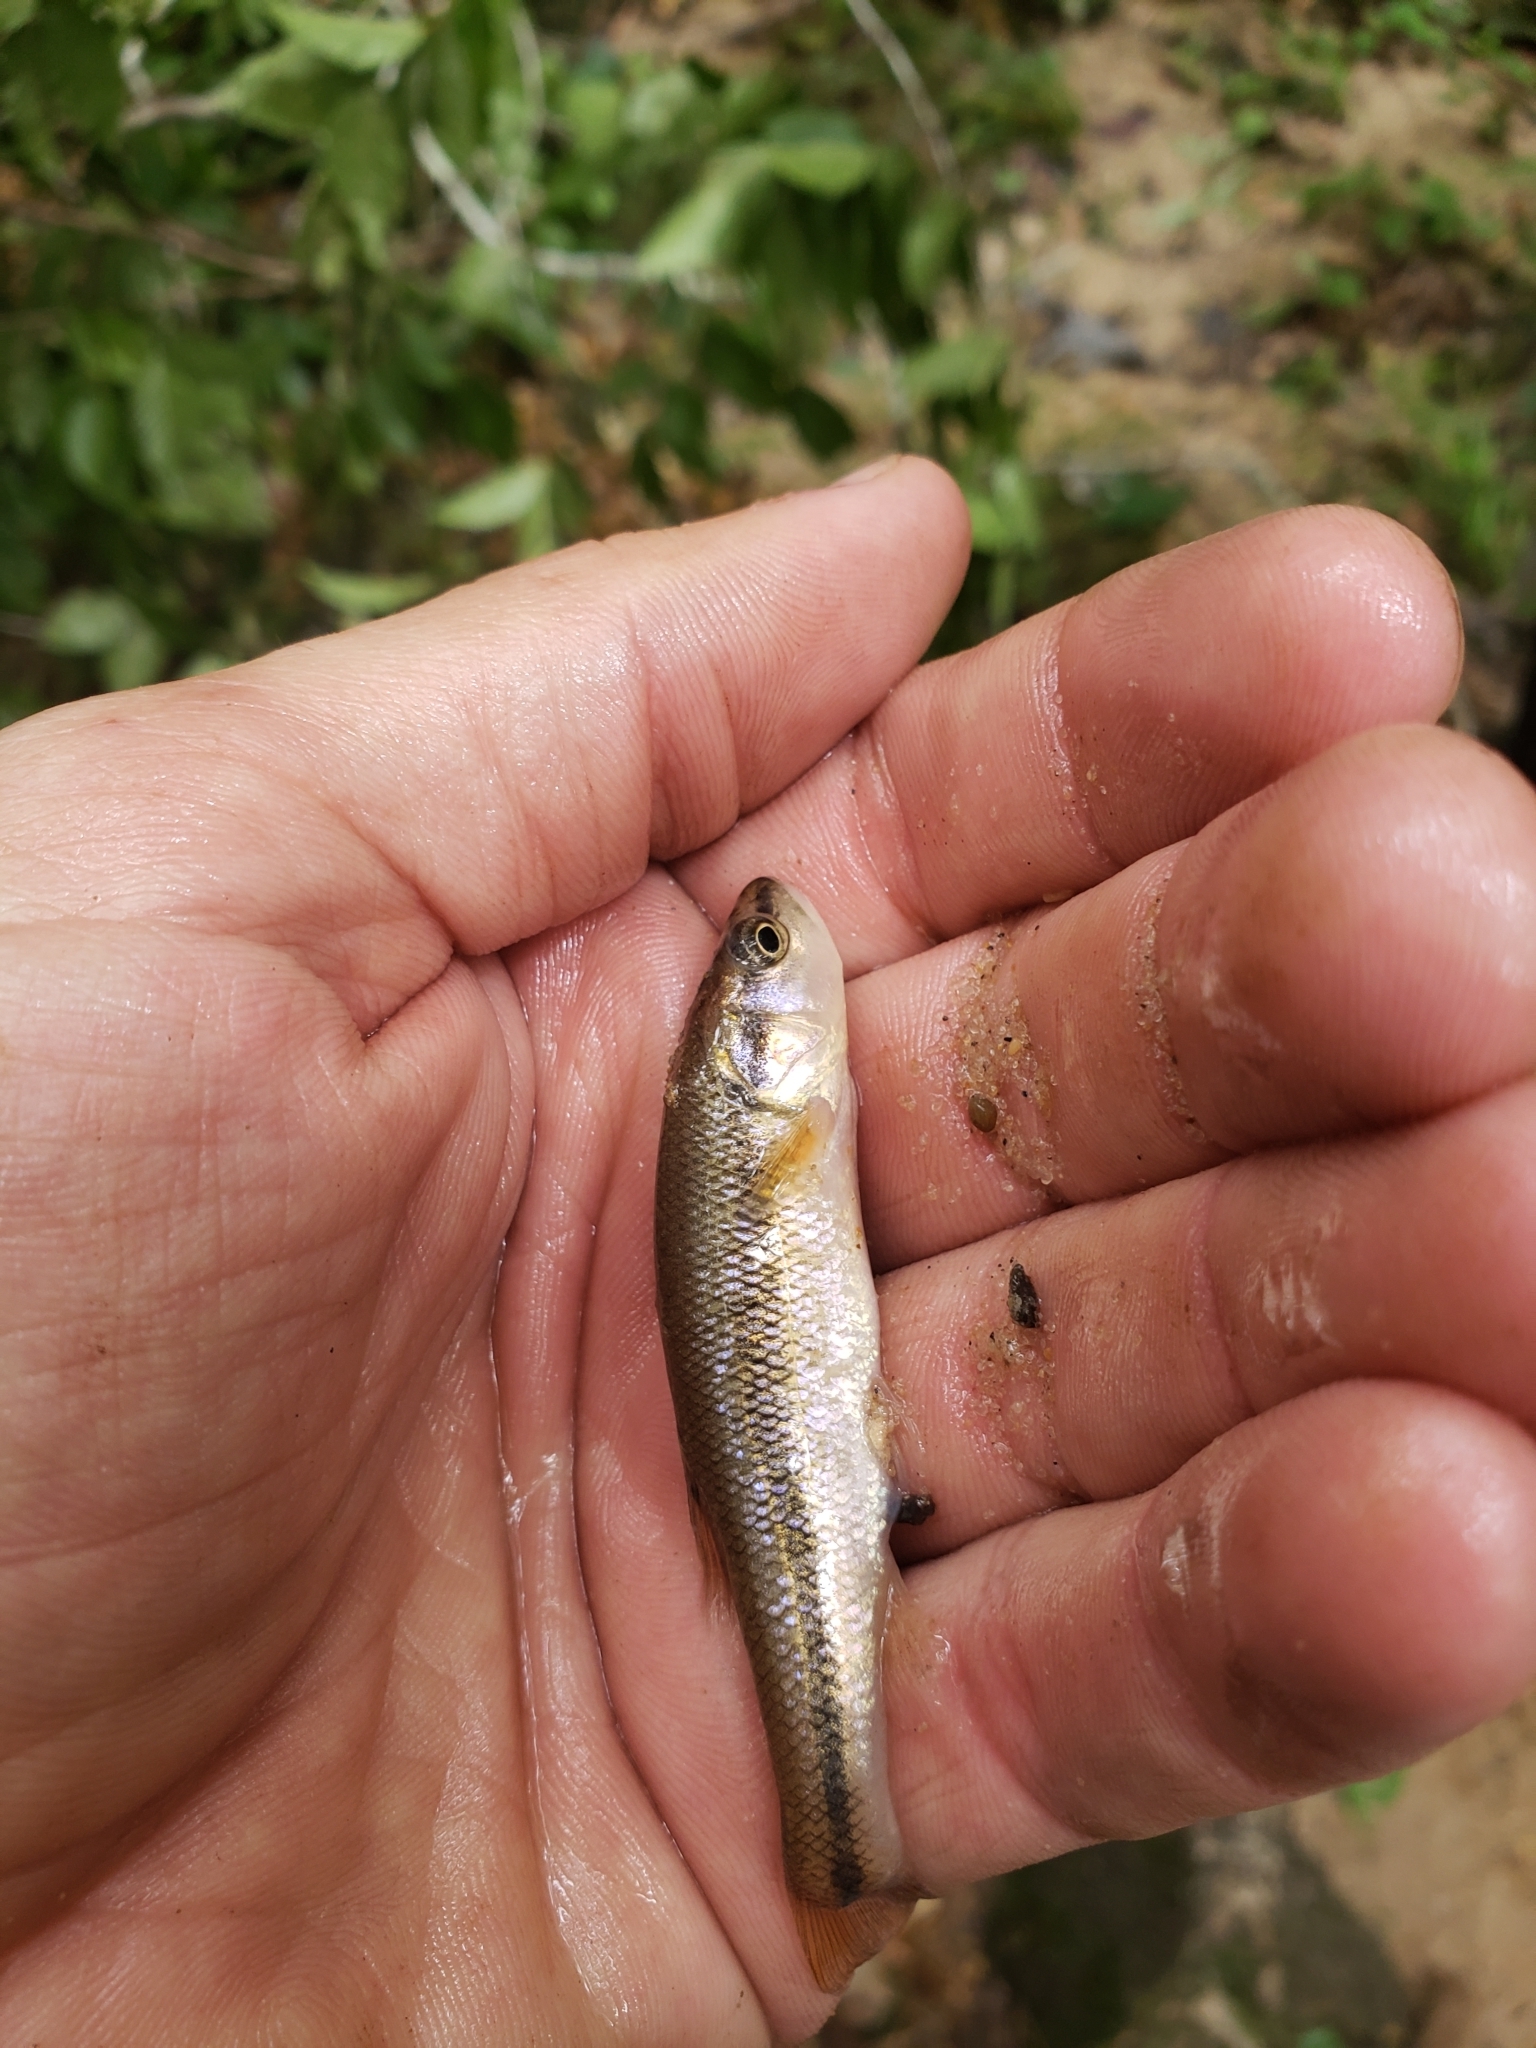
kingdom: Animalia
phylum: Chordata
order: Cypriniformes
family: Cyprinidae
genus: Semotilus
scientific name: Semotilus atromaculatus
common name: Creek chub
